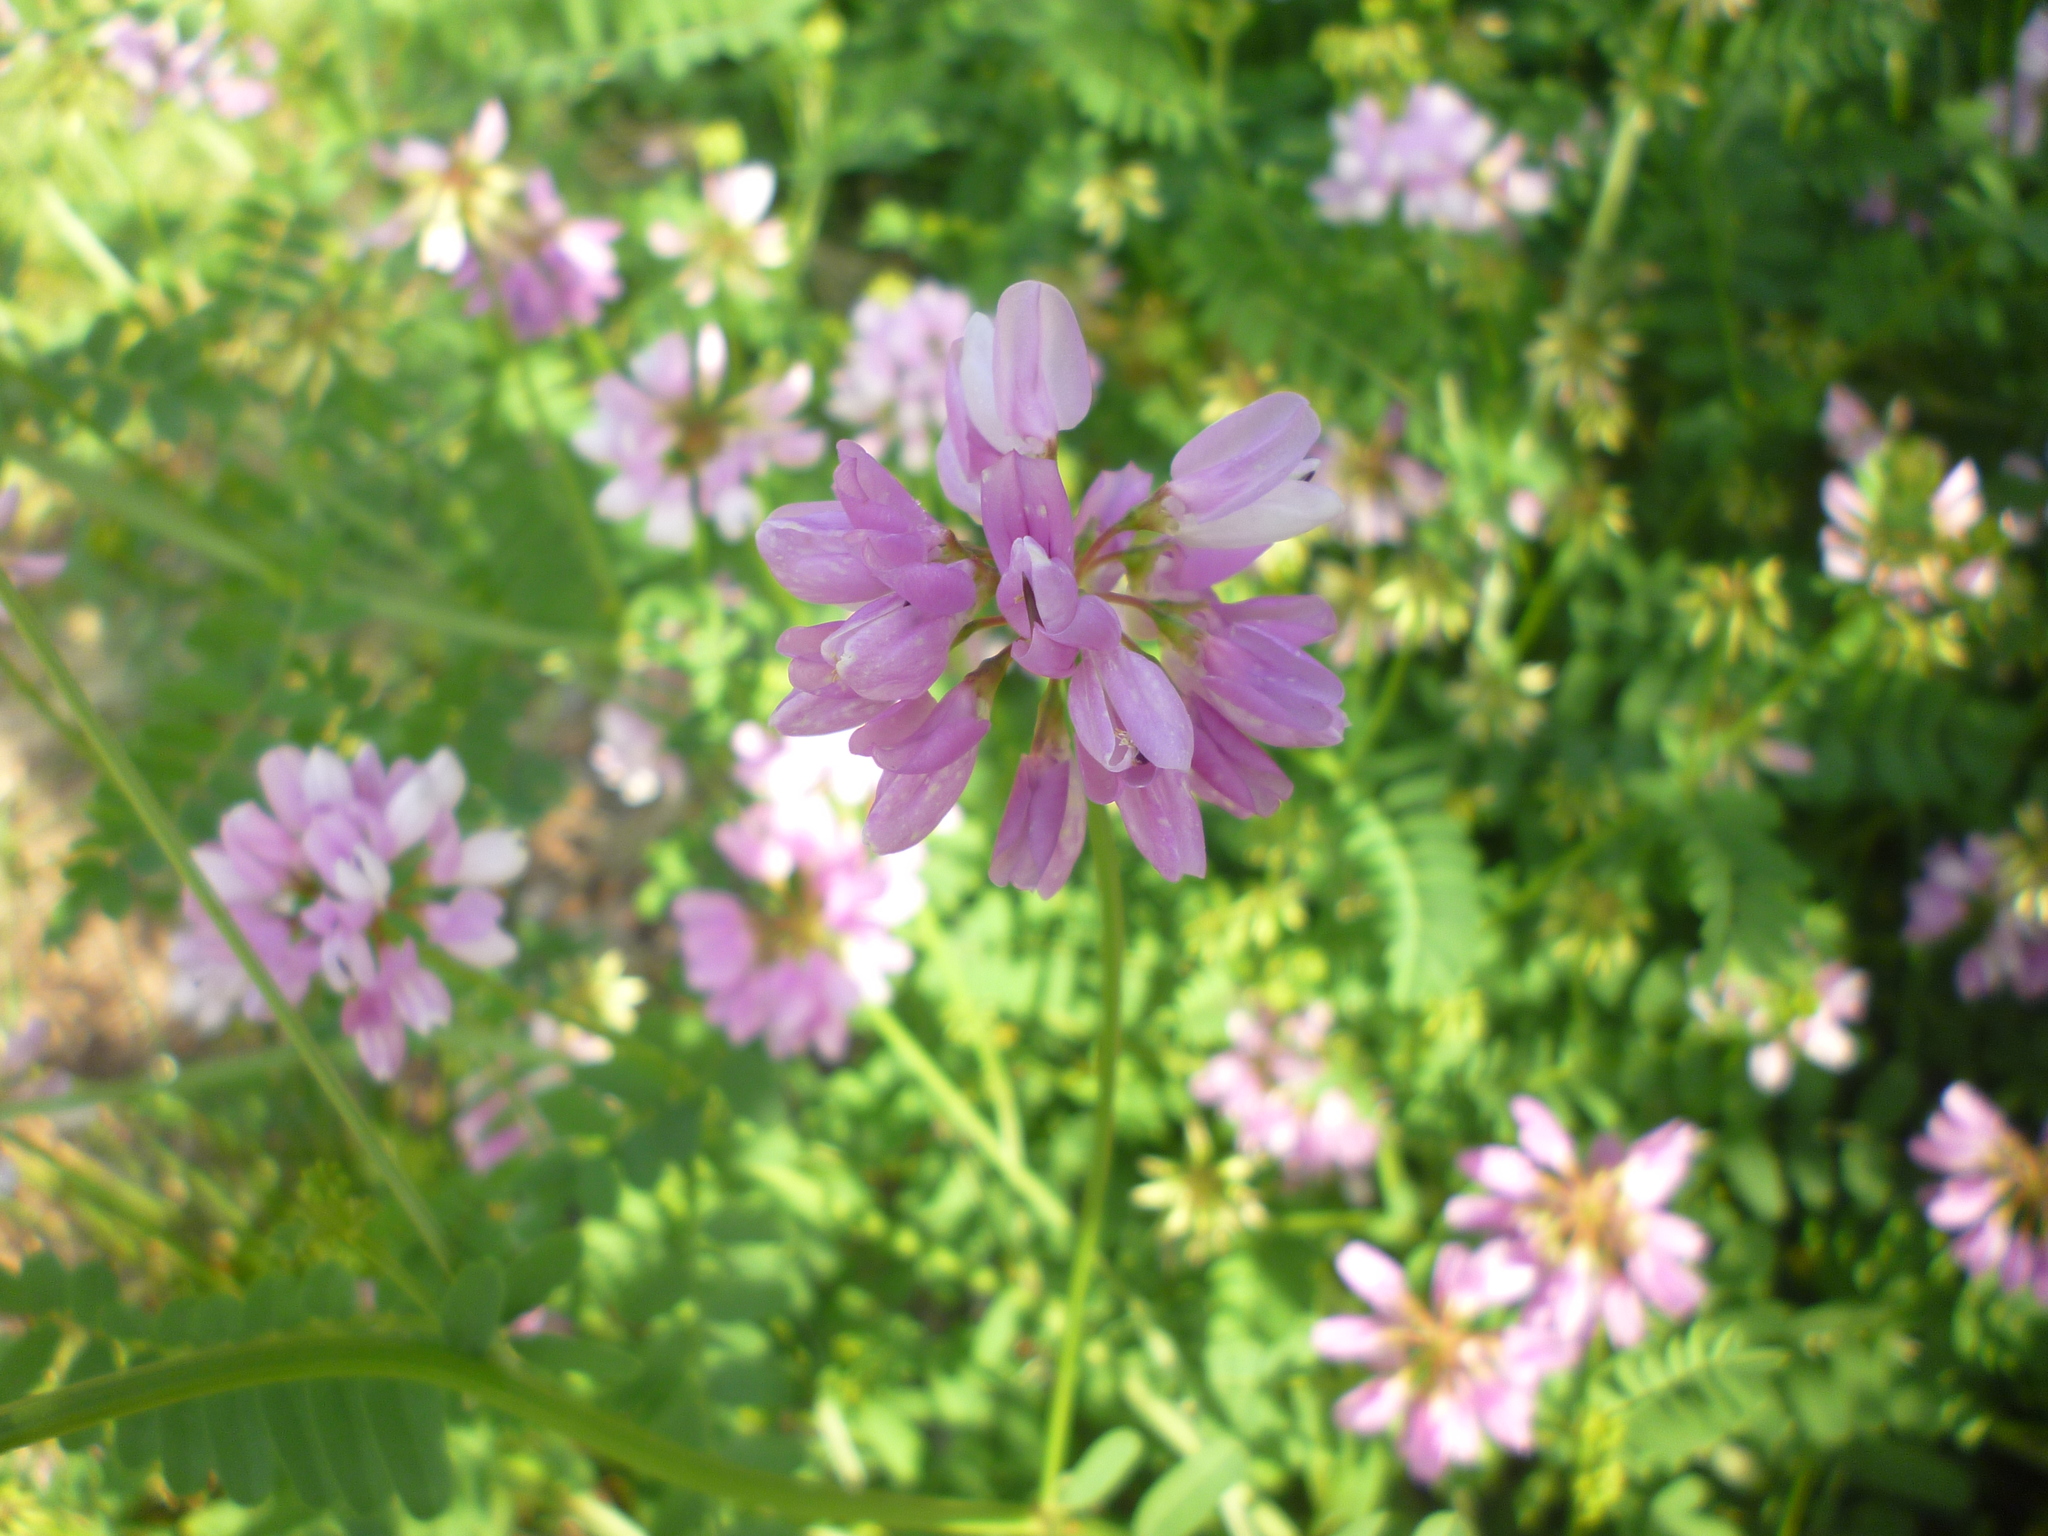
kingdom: Plantae
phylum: Tracheophyta
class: Magnoliopsida
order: Fabales
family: Fabaceae
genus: Coronilla
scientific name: Coronilla varia
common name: Crownvetch
